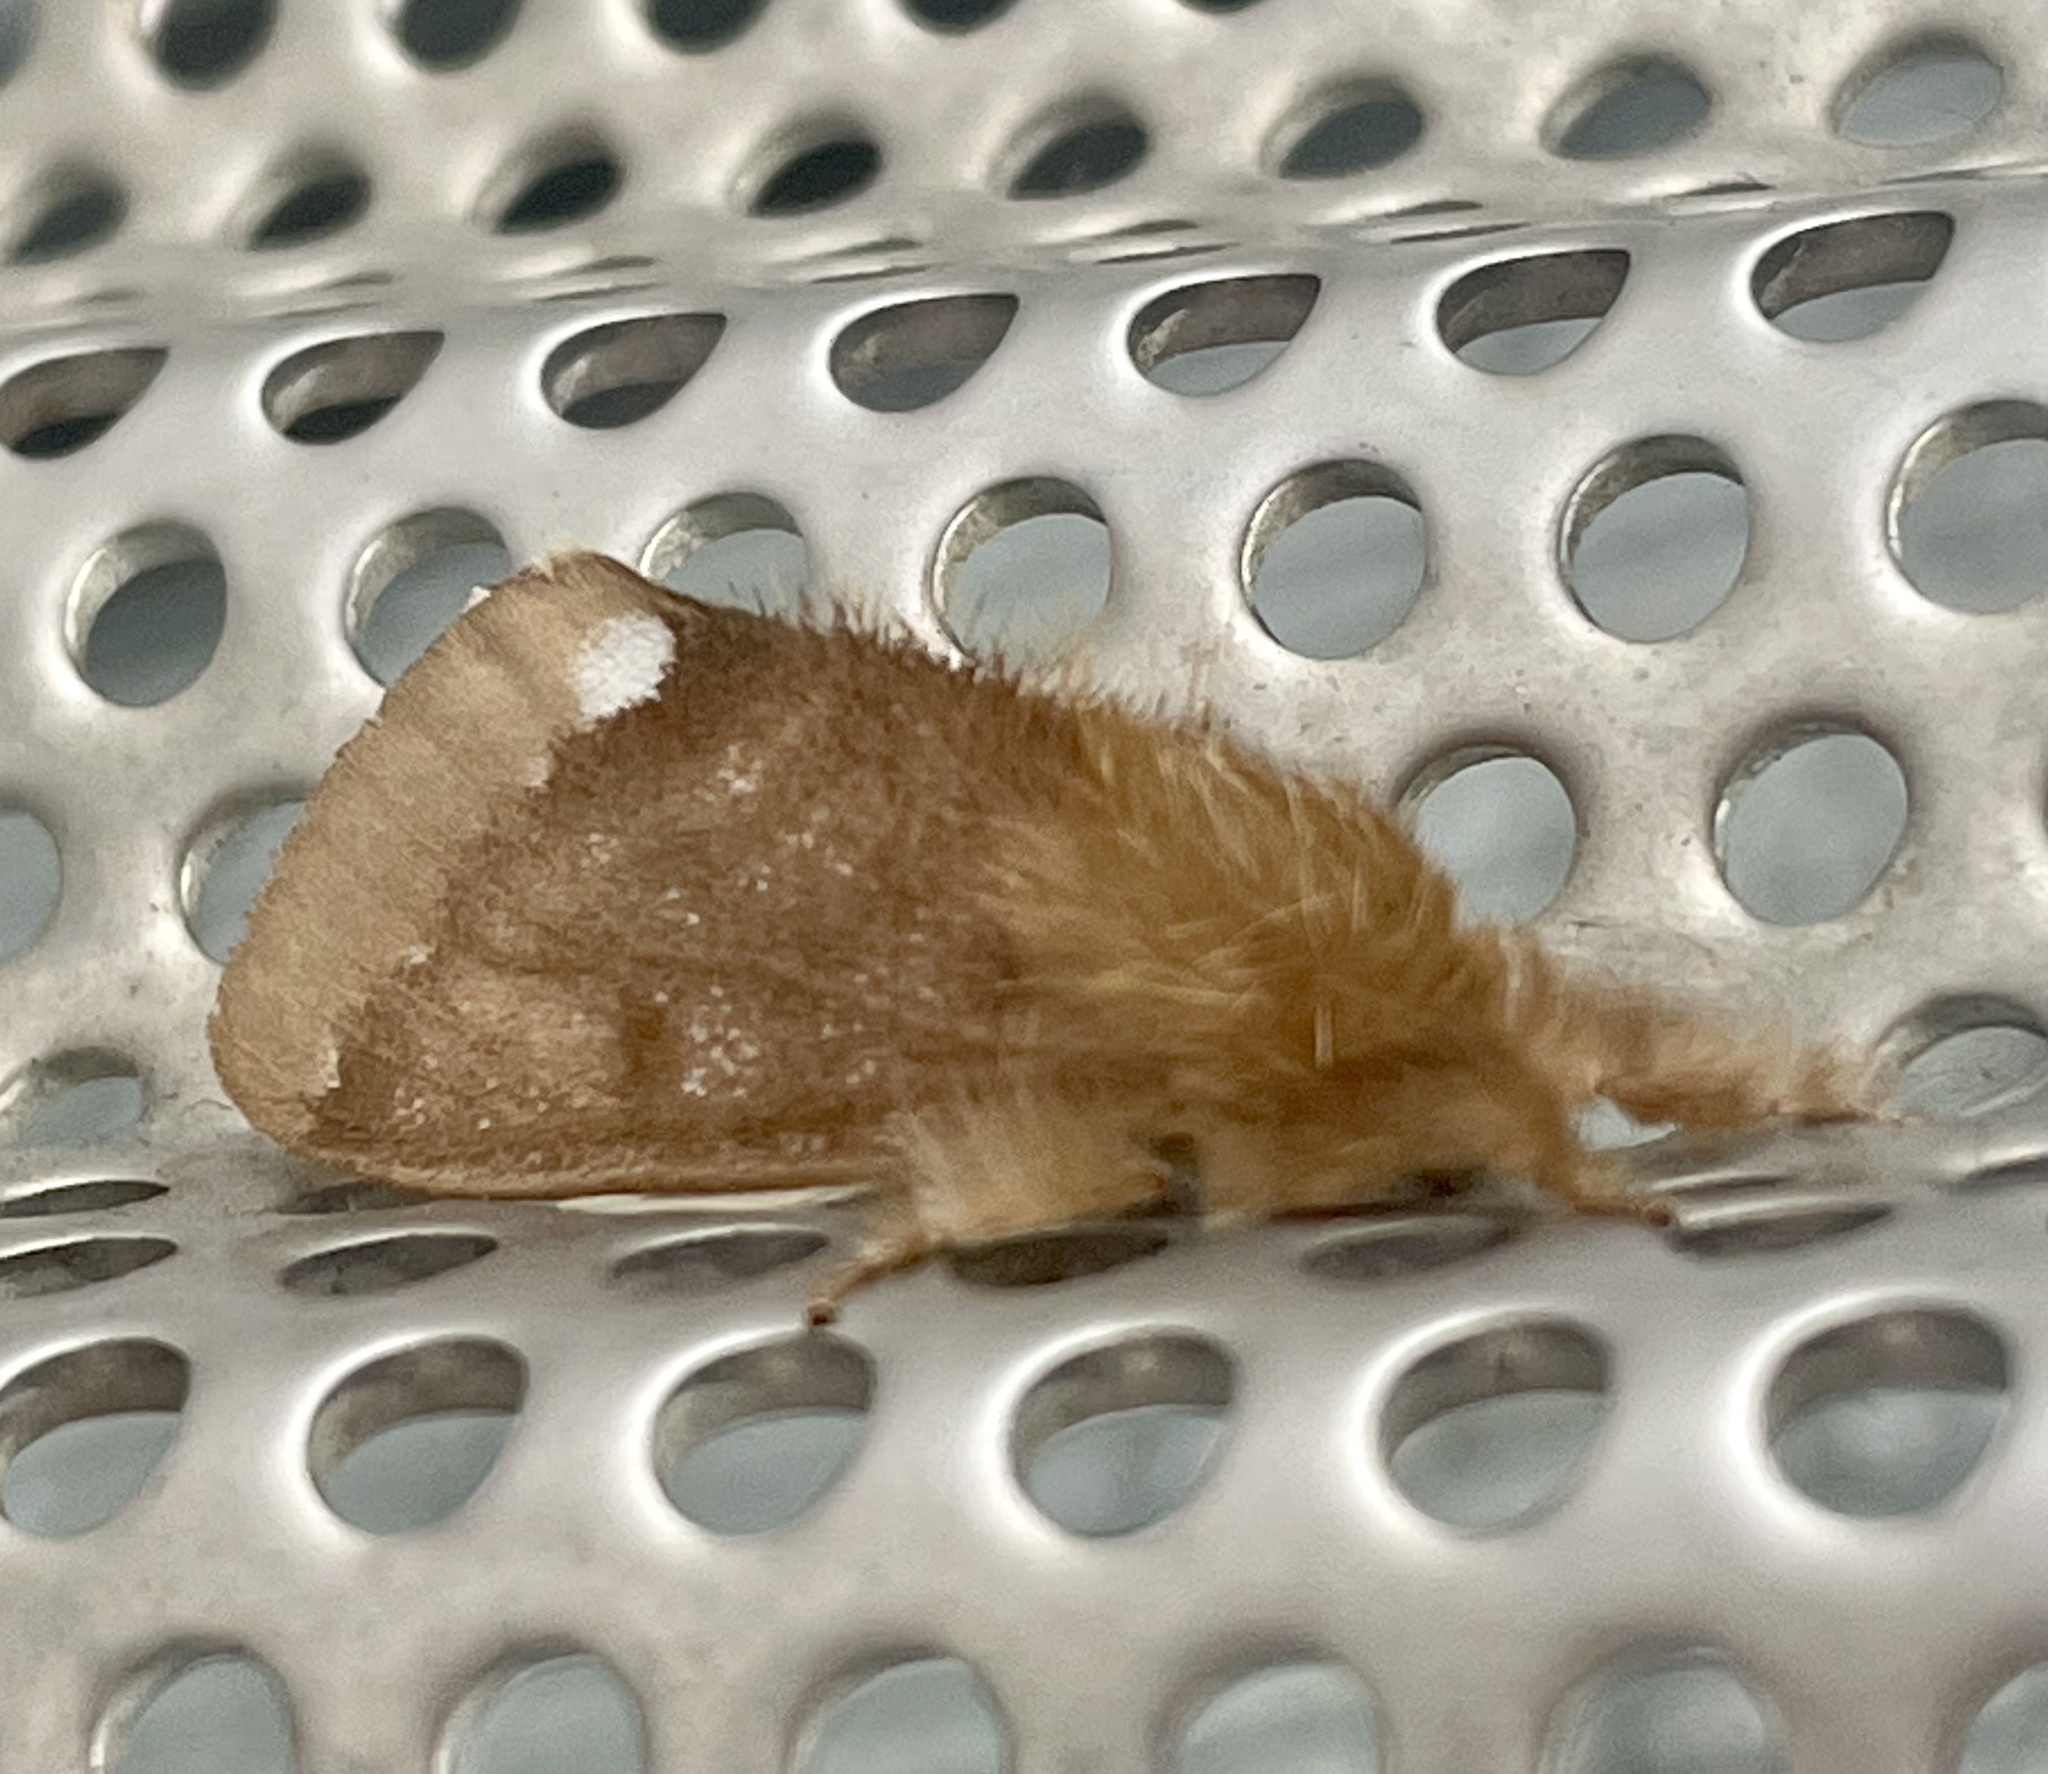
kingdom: Animalia
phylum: Arthropoda
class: Insecta
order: Lepidoptera
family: Erebidae
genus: Euproctis
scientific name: Euproctis
